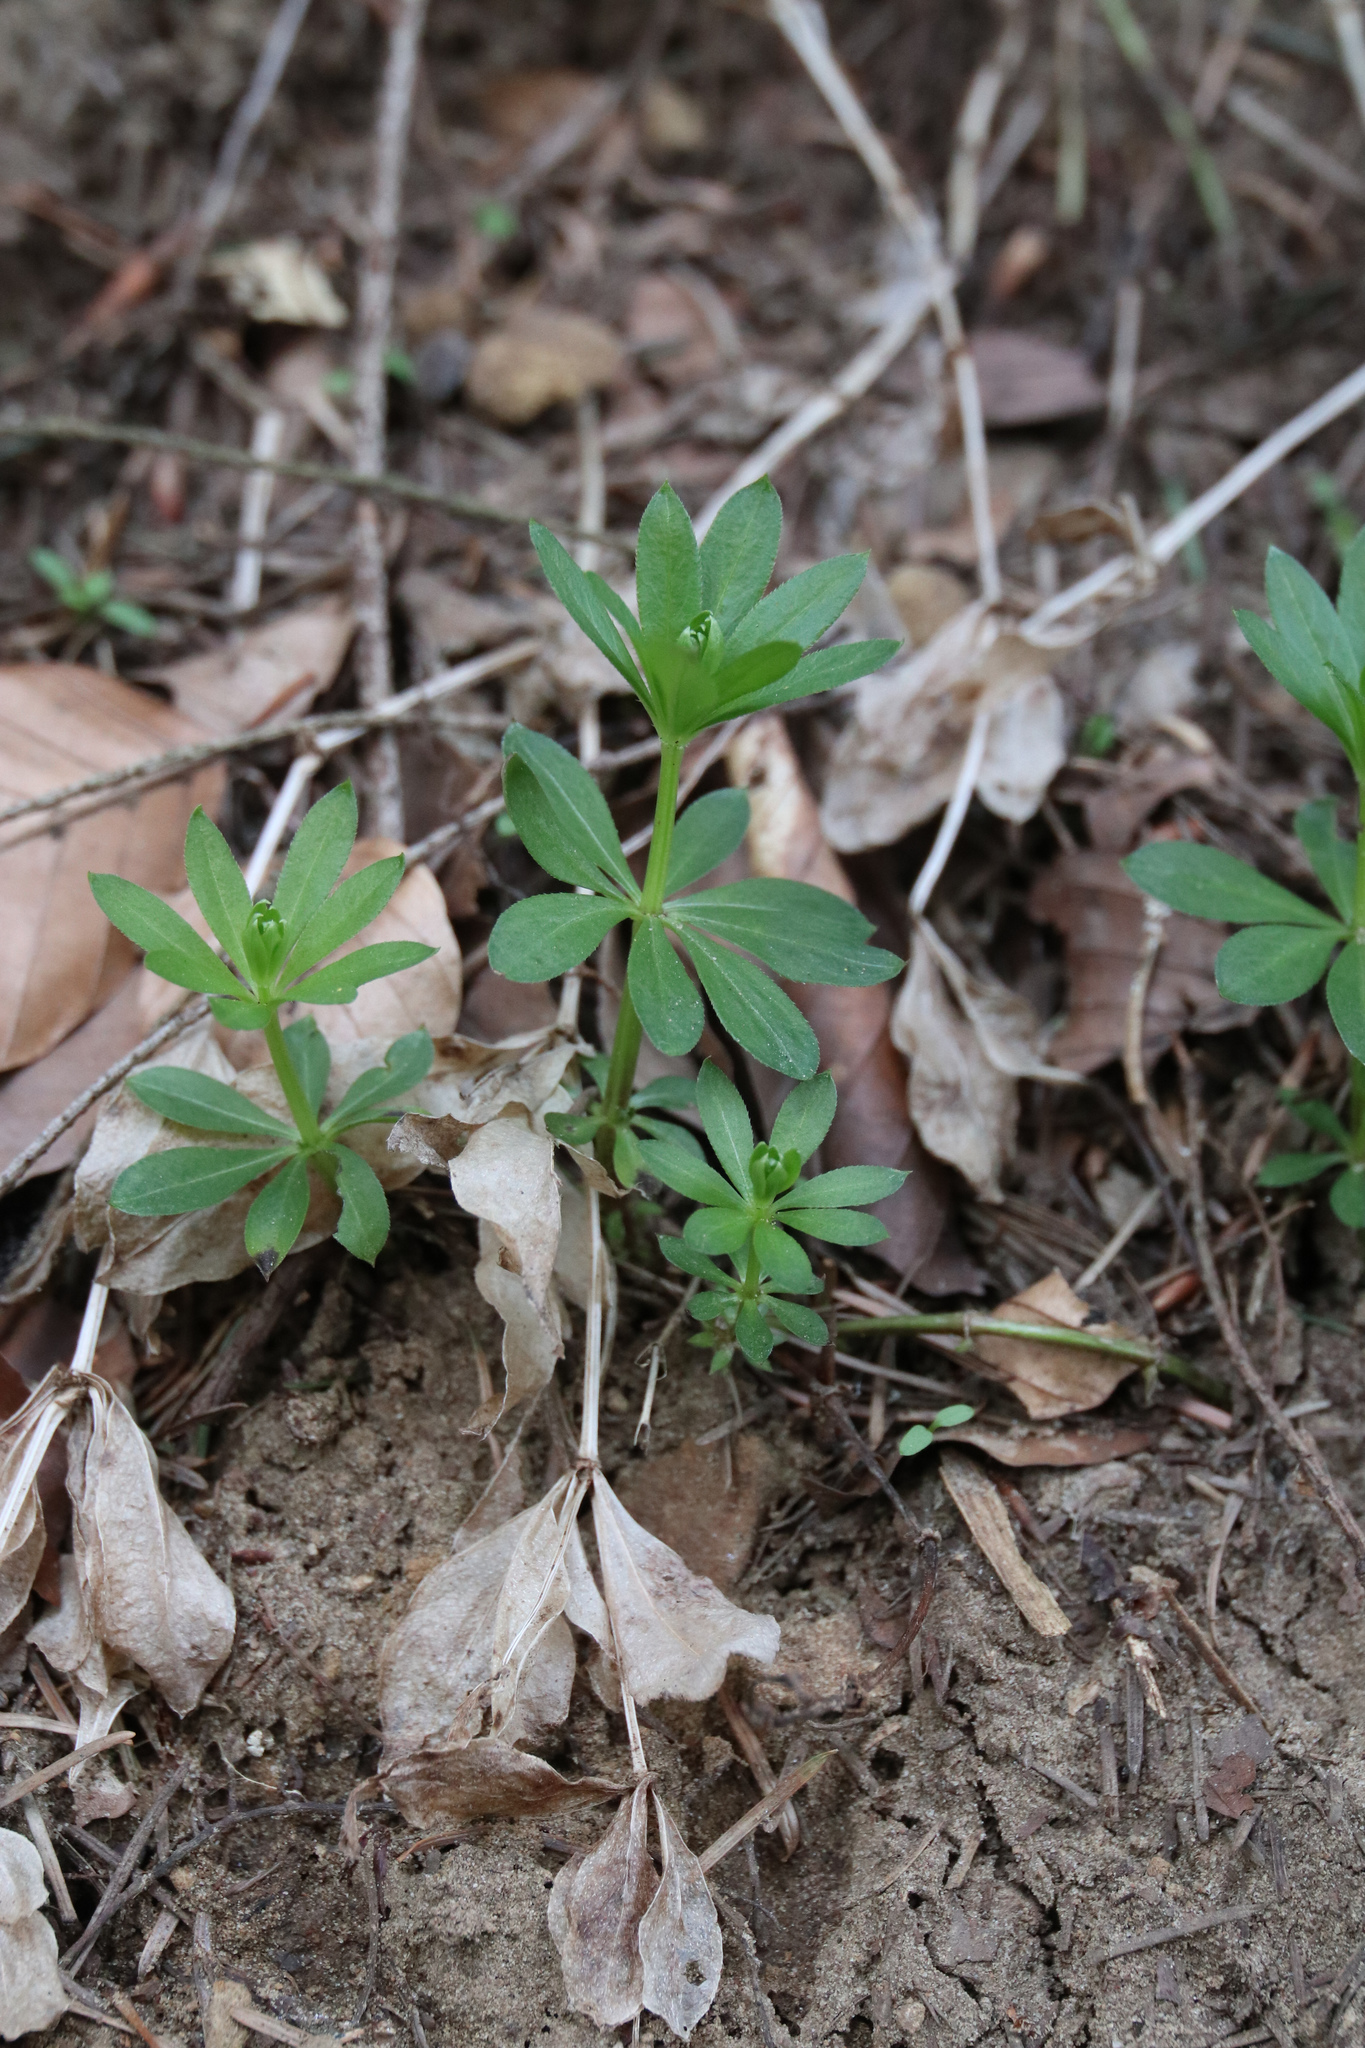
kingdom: Plantae
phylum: Tracheophyta
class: Magnoliopsida
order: Gentianales
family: Rubiaceae
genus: Galium
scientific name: Galium odoratum
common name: Sweet woodruff
